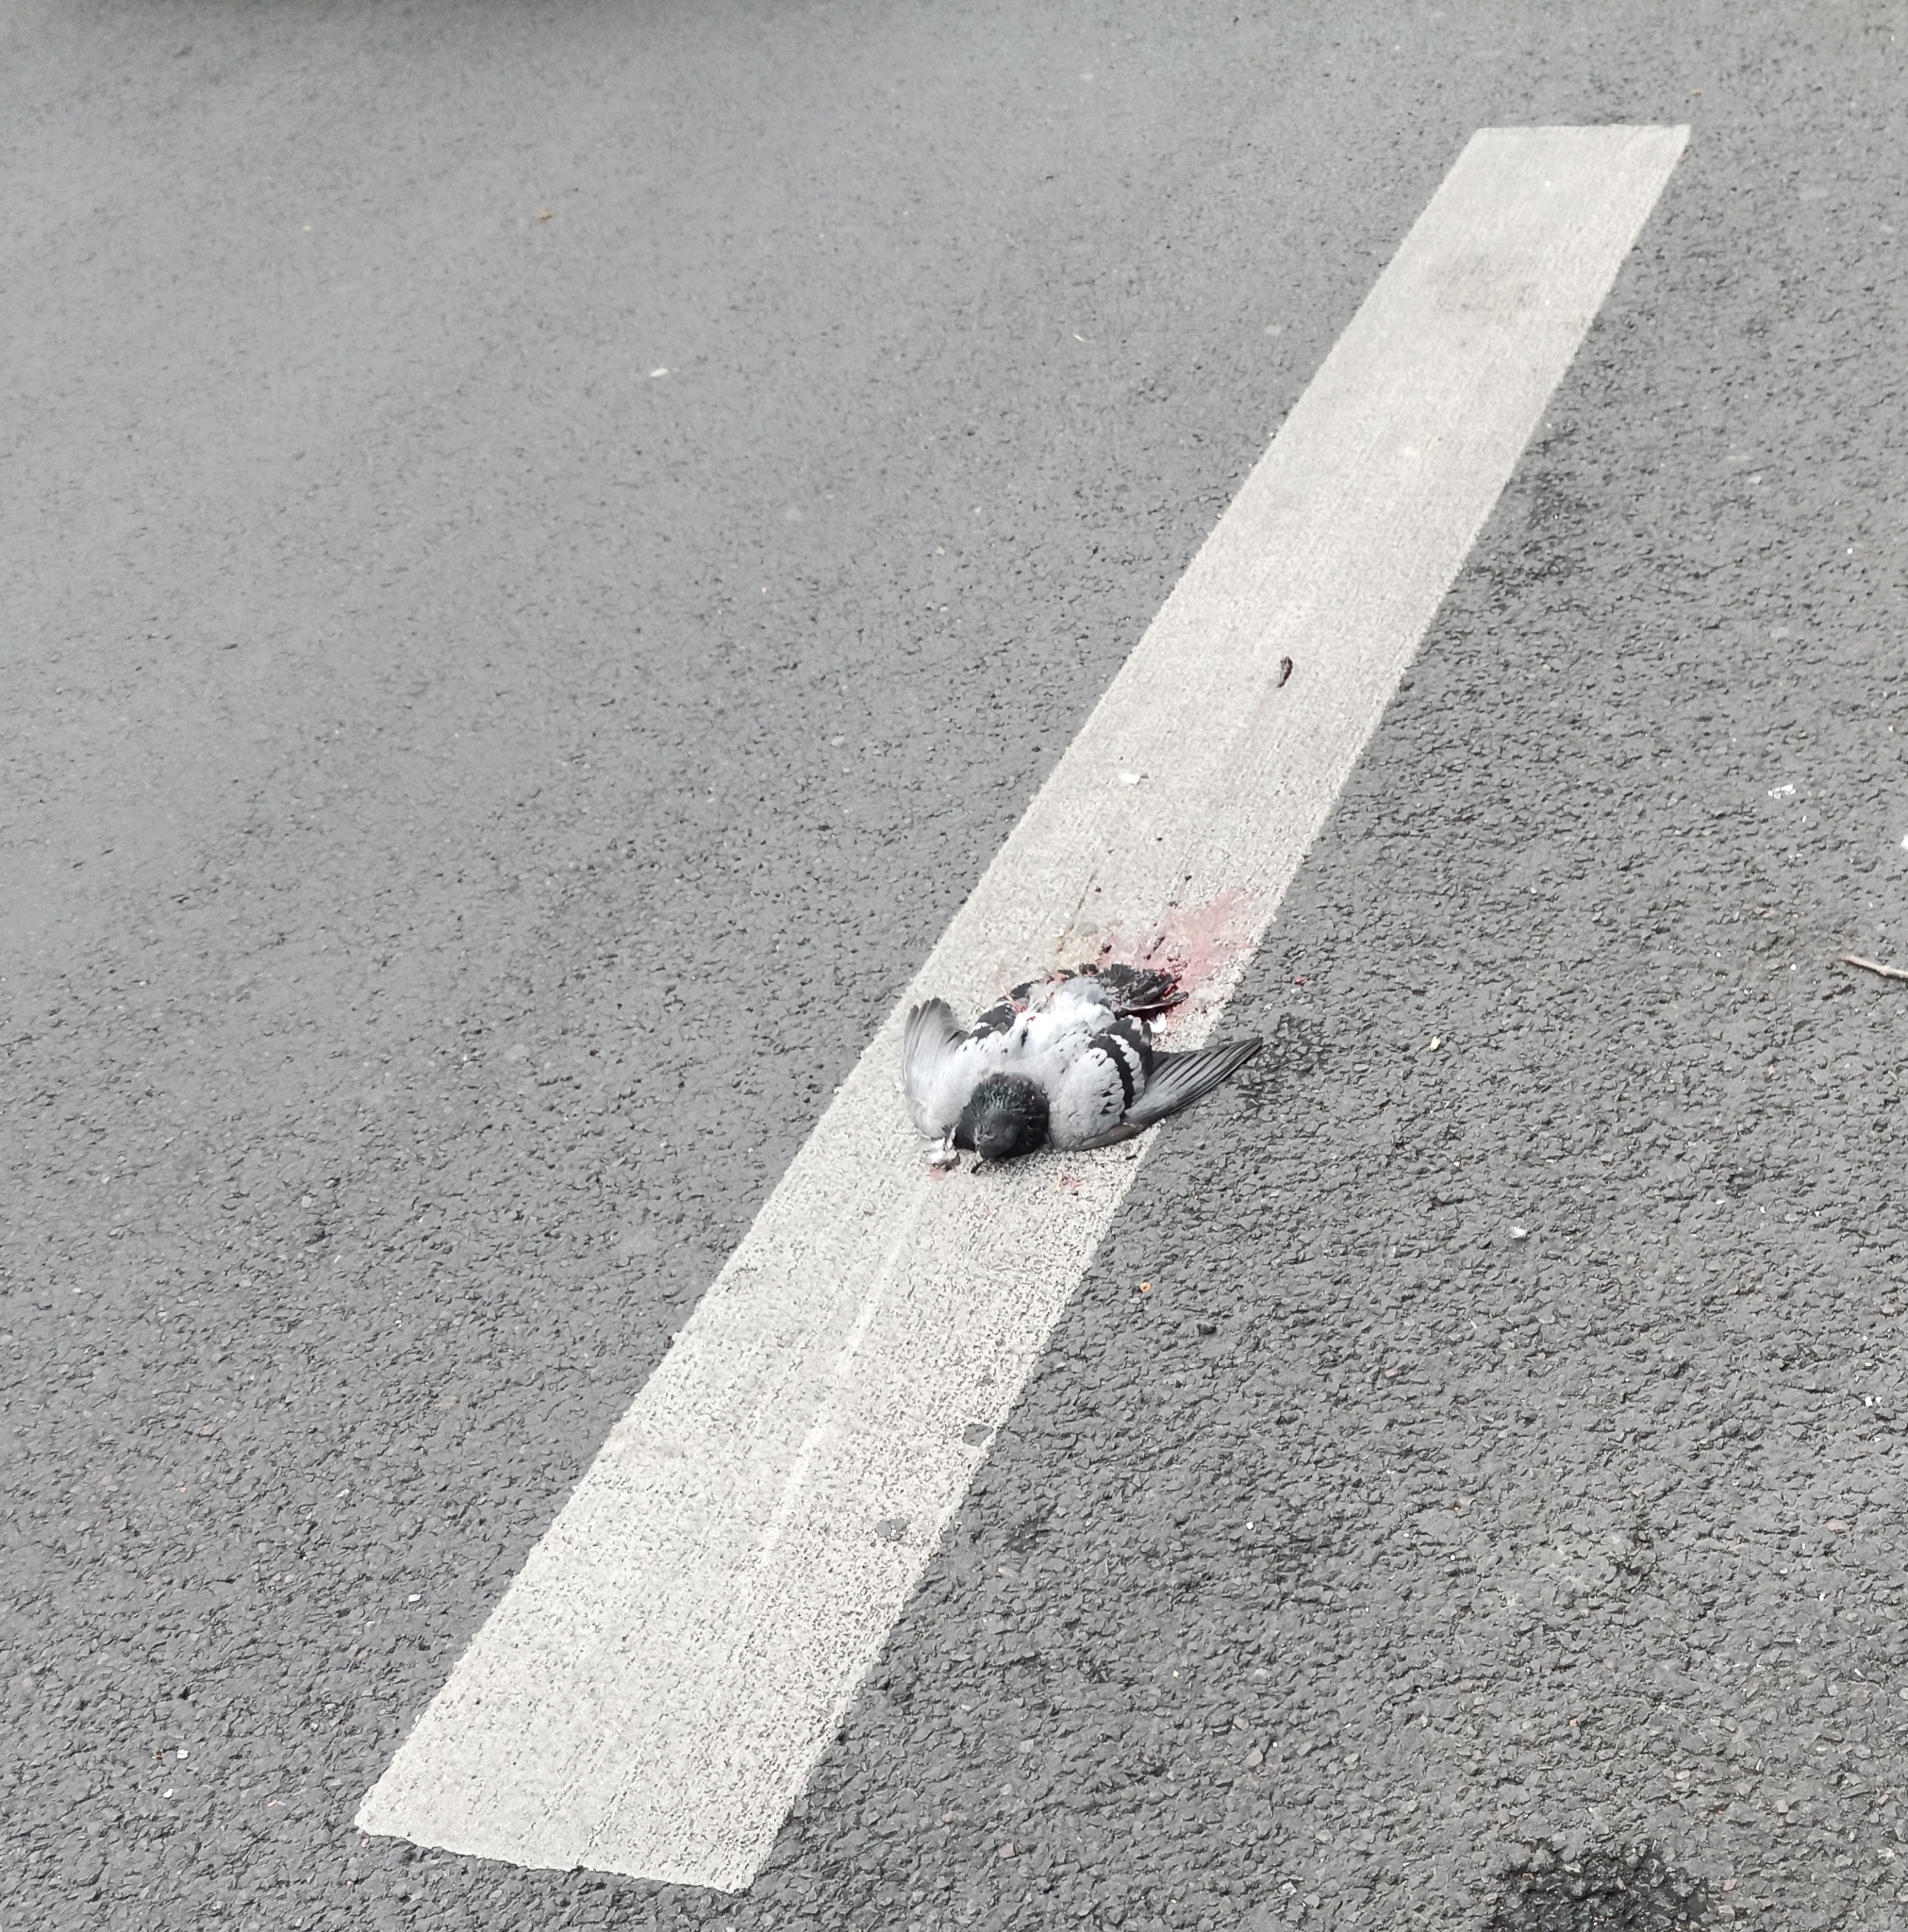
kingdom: Animalia
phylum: Chordata
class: Aves
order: Columbiformes
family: Columbidae
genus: Columba
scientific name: Columba livia
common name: Rock pigeon
